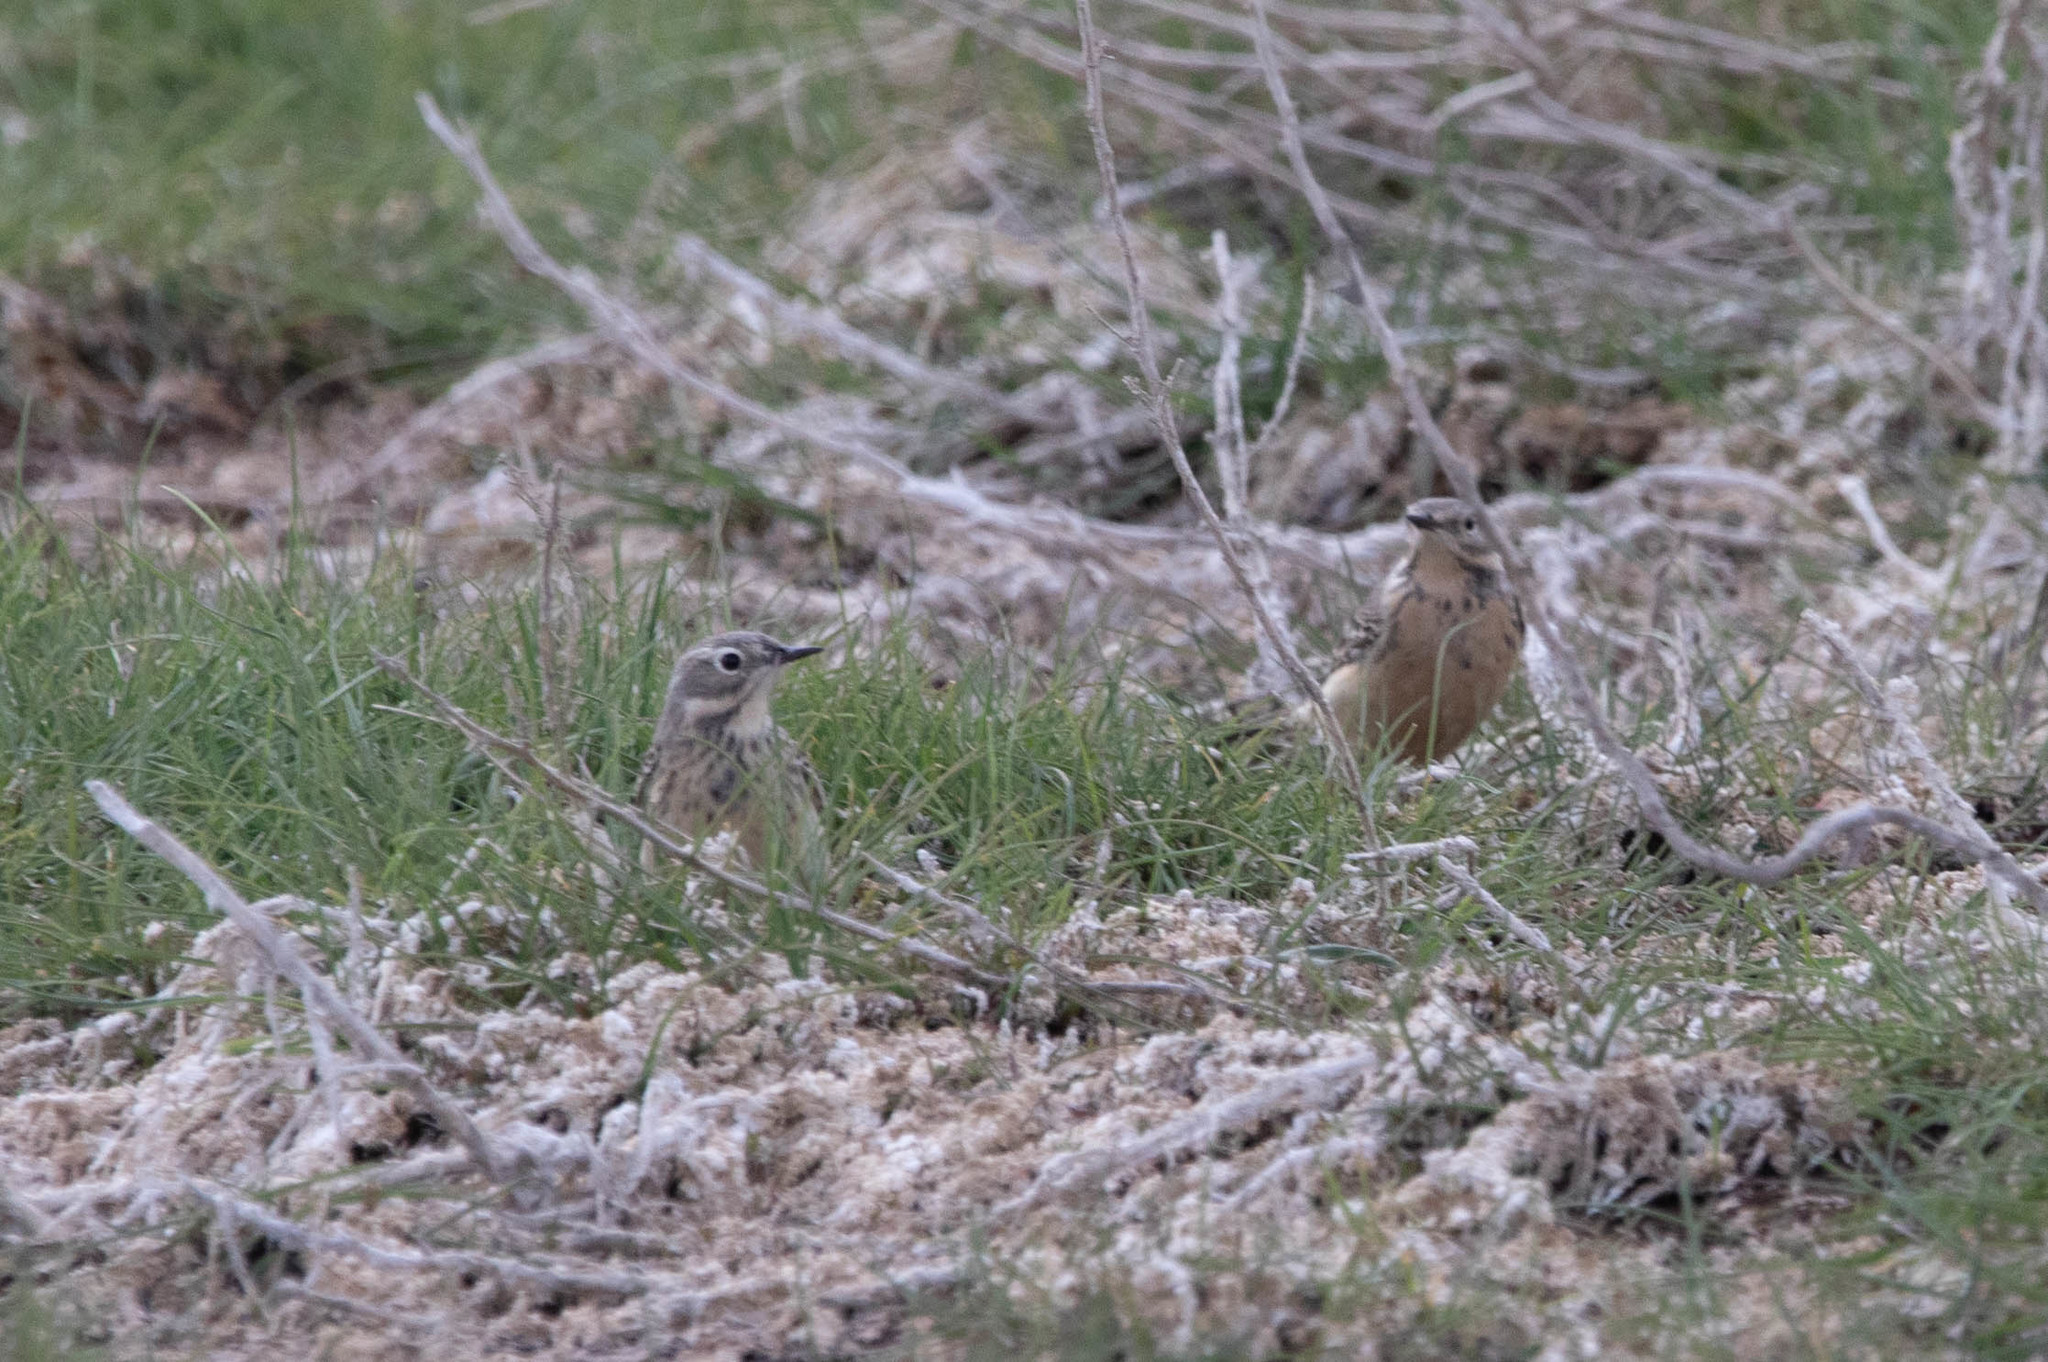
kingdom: Animalia
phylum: Chordata
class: Aves
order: Passeriformes
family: Motacillidae
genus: Anthus
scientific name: Anthus rubescens
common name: Buff-bellied pipit
